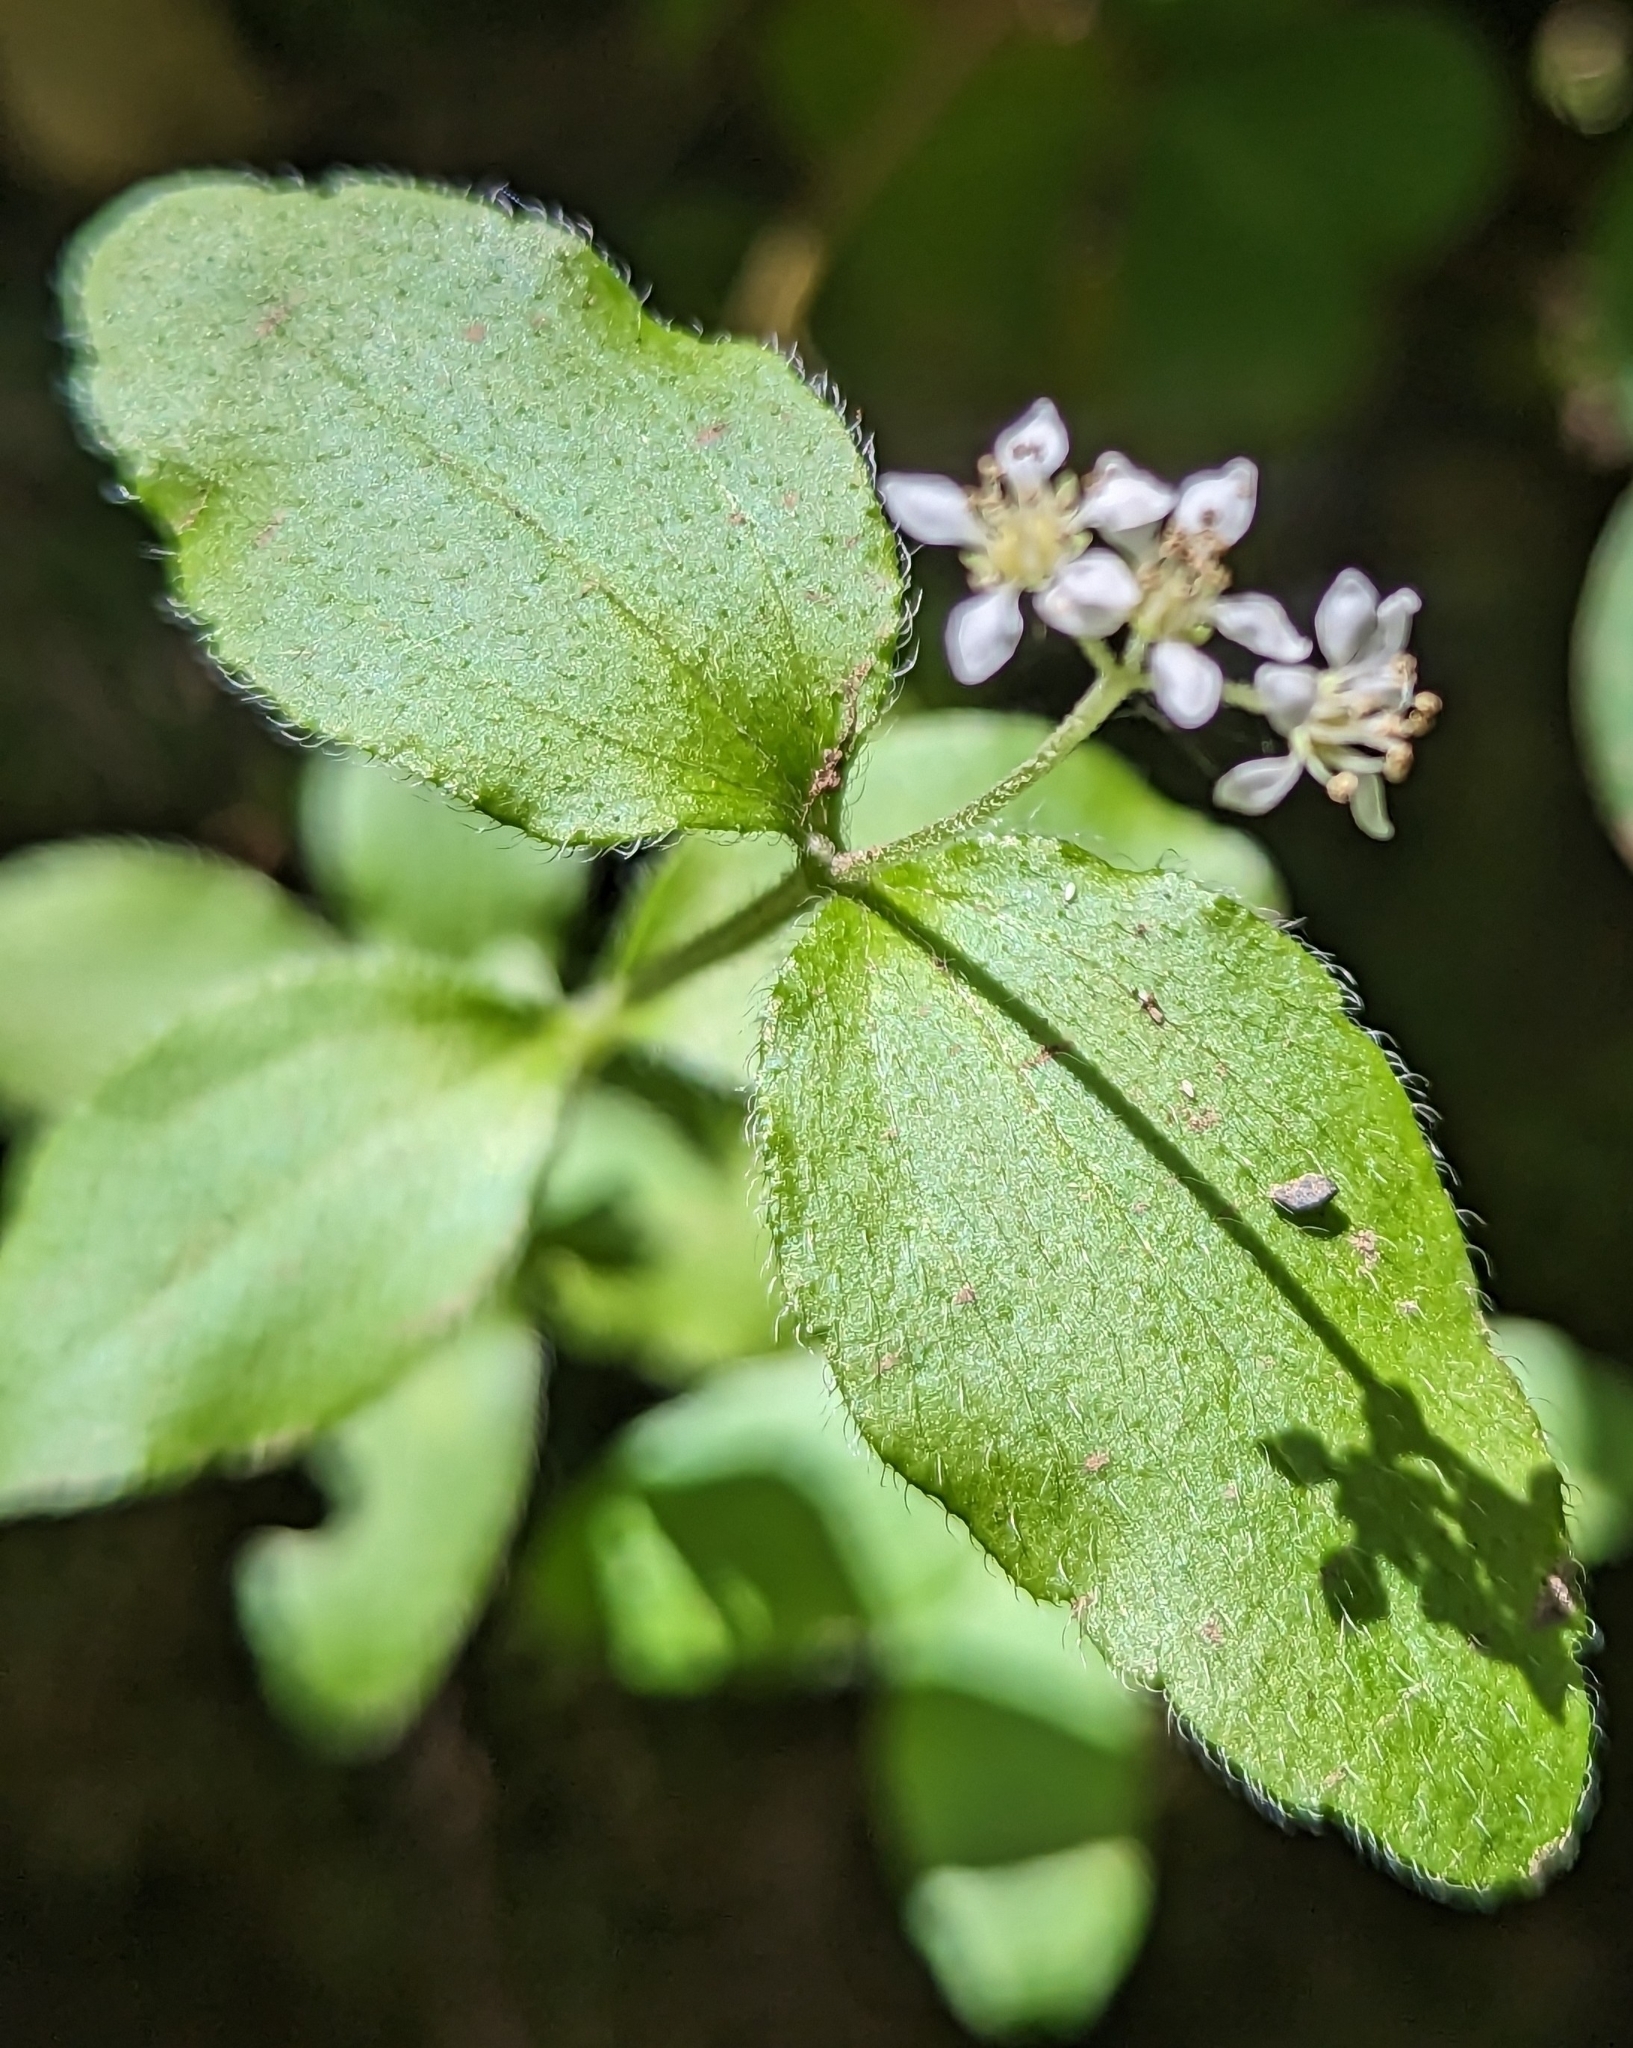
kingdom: Plantae
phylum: Tracheophyta
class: Magnoliopsida
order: Cornales
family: Hydrangeaceae
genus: Whipplea
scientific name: Whipplea modesta
